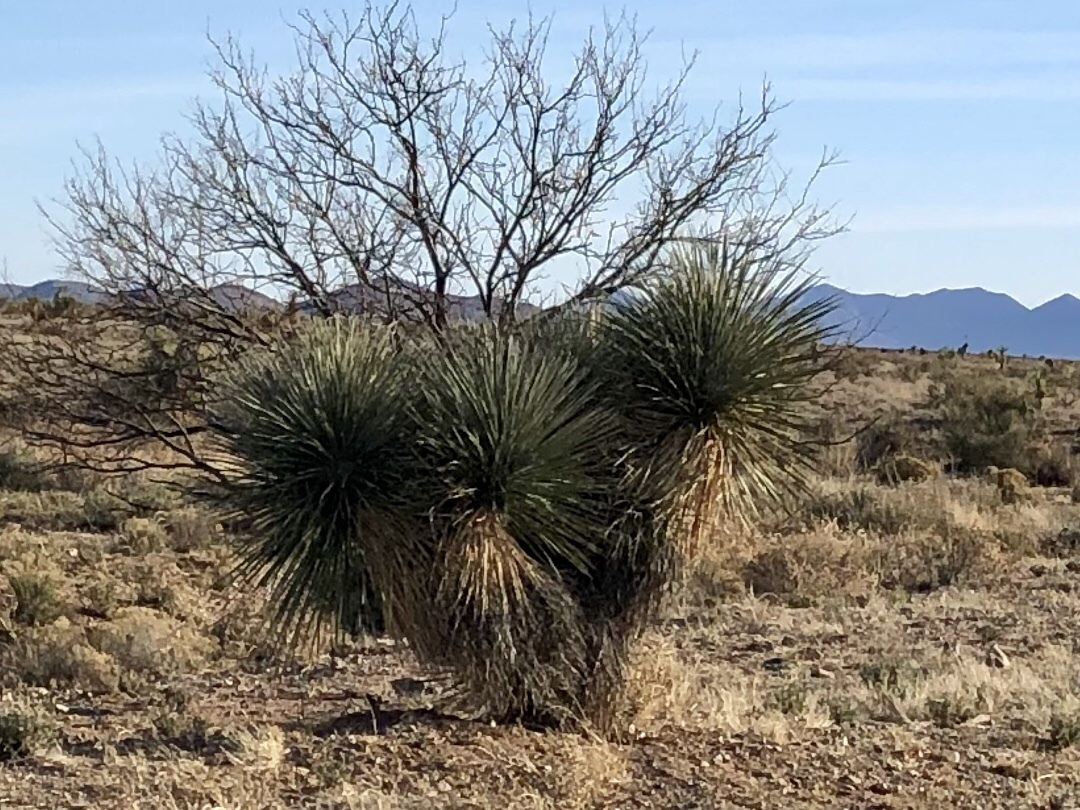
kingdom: Plantae
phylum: Tracheophyta
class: Liliopsida
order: Asparagales
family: Asparagaceae
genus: Yucca
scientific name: Yucca elata
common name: Palmella
